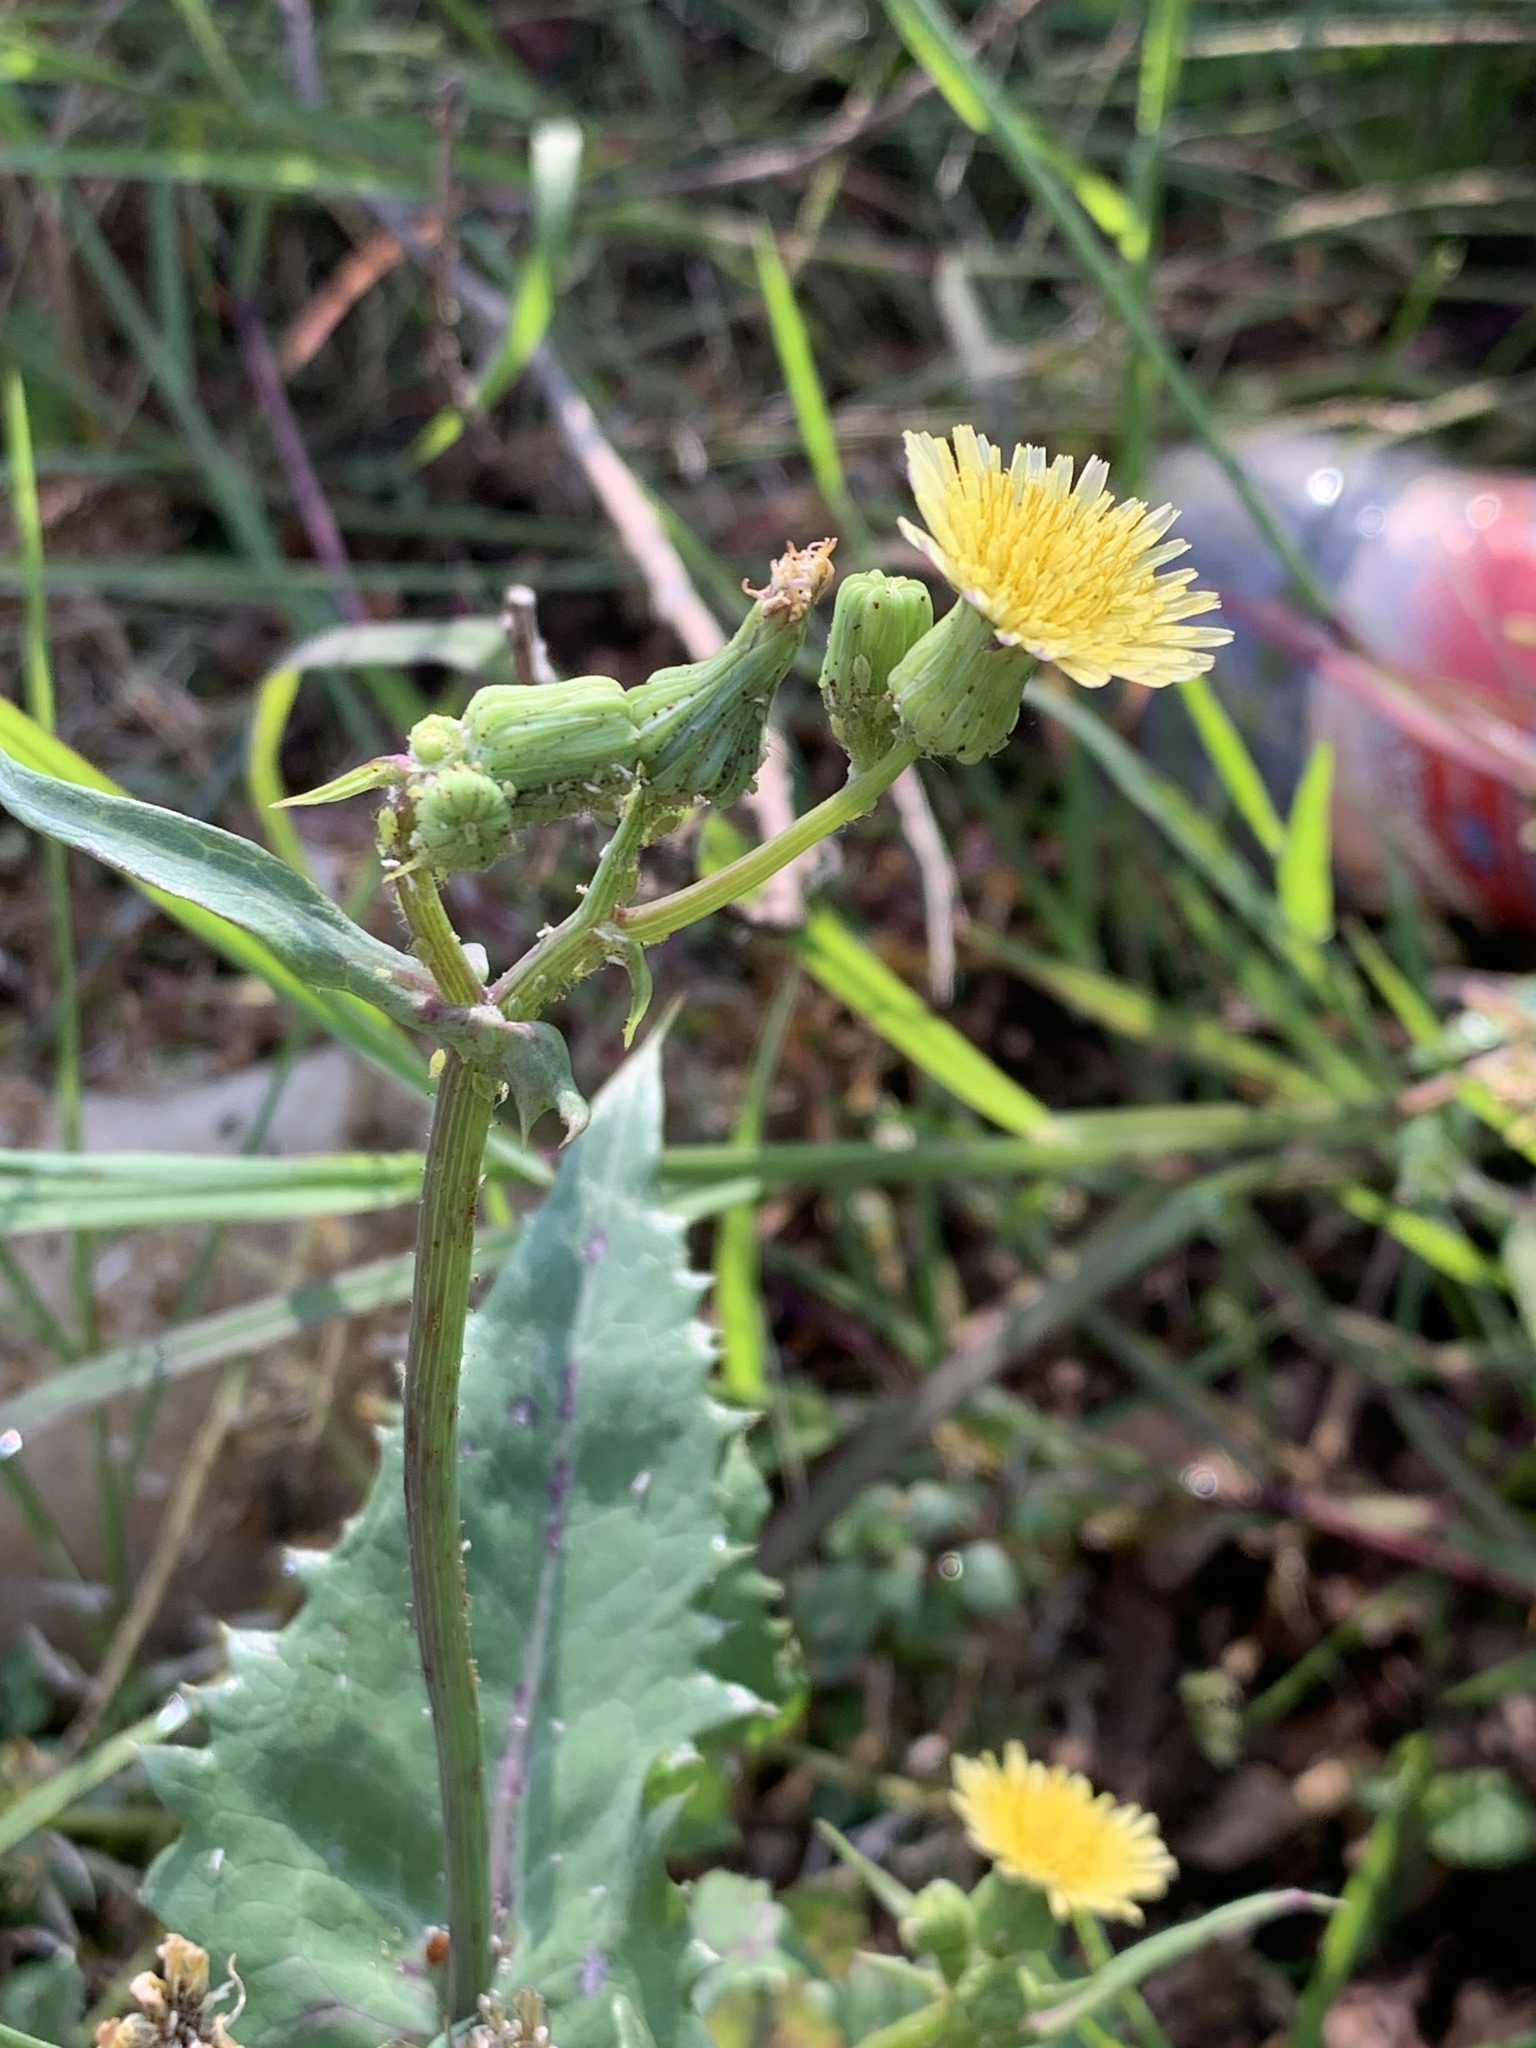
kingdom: Plantae
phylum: Tracheophyta
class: Magnoliopsida
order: Asterales
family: Asteraceae
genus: Sonchus
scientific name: Sonchus oleraceus
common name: Common sowthistle
